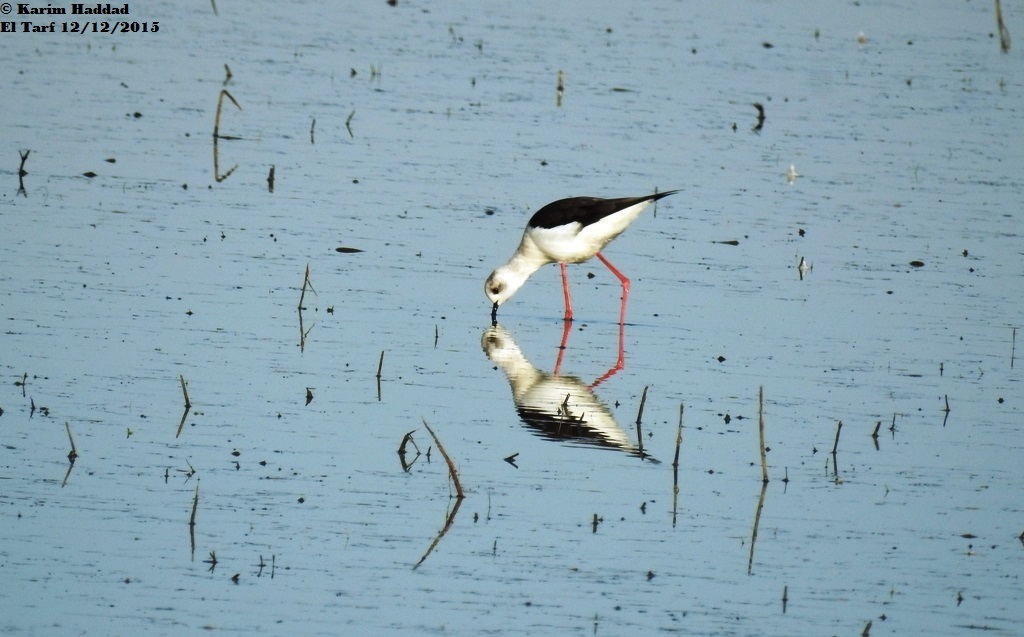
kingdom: Animalia
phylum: Chordata
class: Aves
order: Charadriiformes
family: Recurvirostridae
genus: Himantopus
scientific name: Himantopus himantopus
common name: Black-winged stilt
